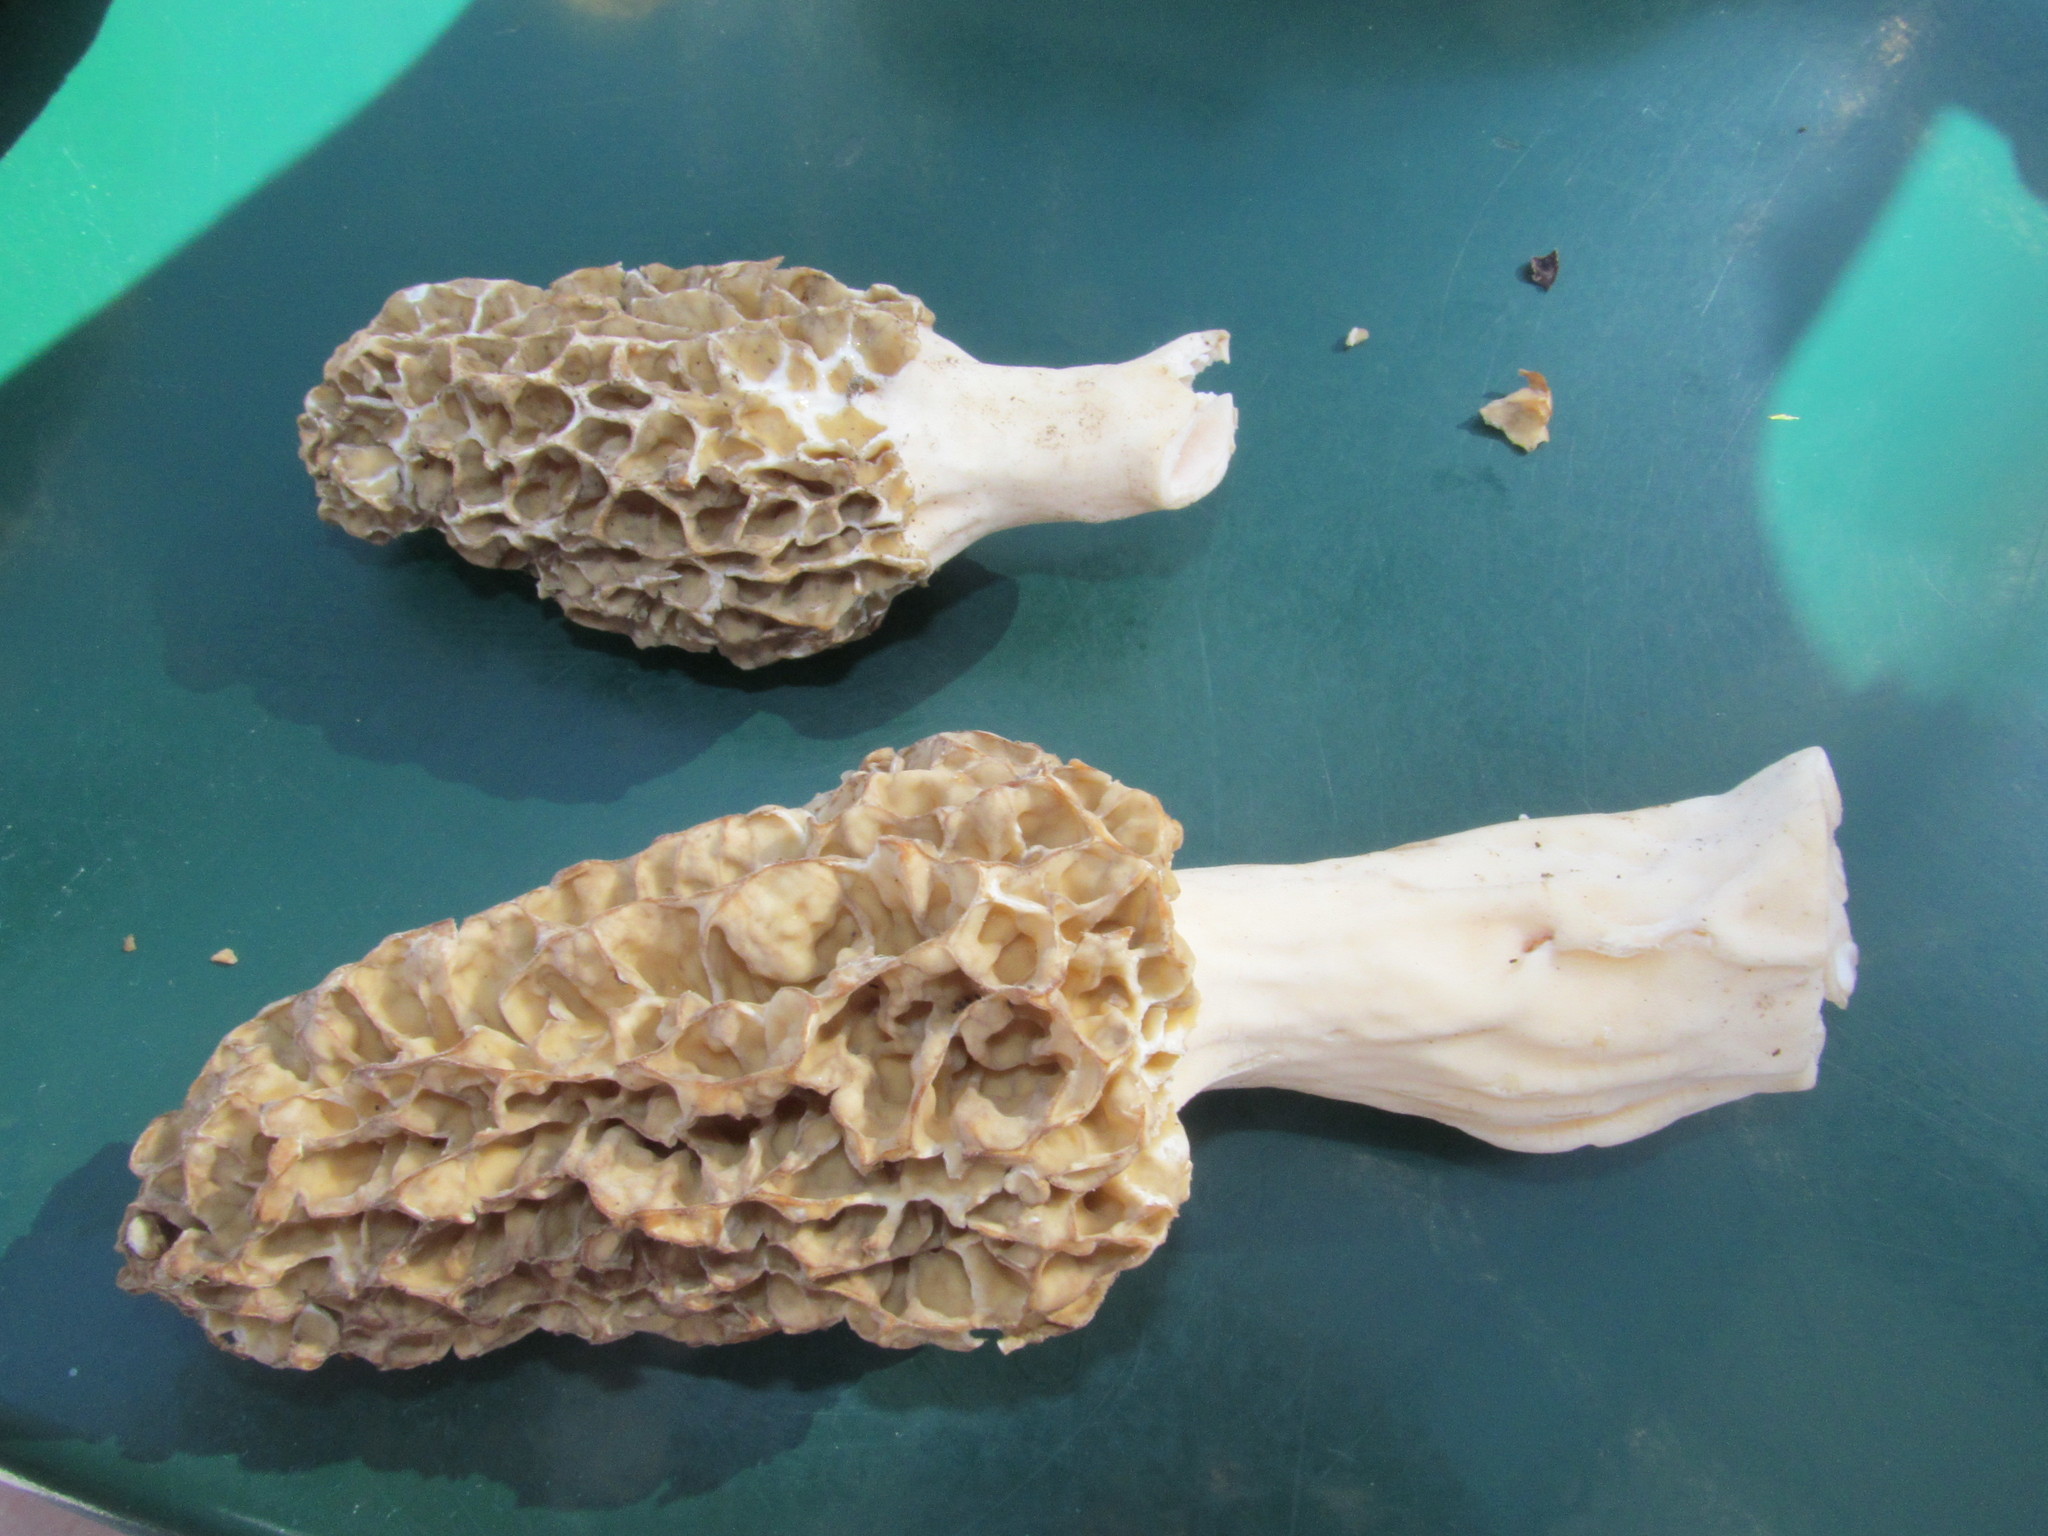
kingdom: Fungi
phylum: Ascomycota
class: Pezizomycetes
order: Pezizales
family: Morchellaceae
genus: Morchella
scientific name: Morchella americana
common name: White morel
